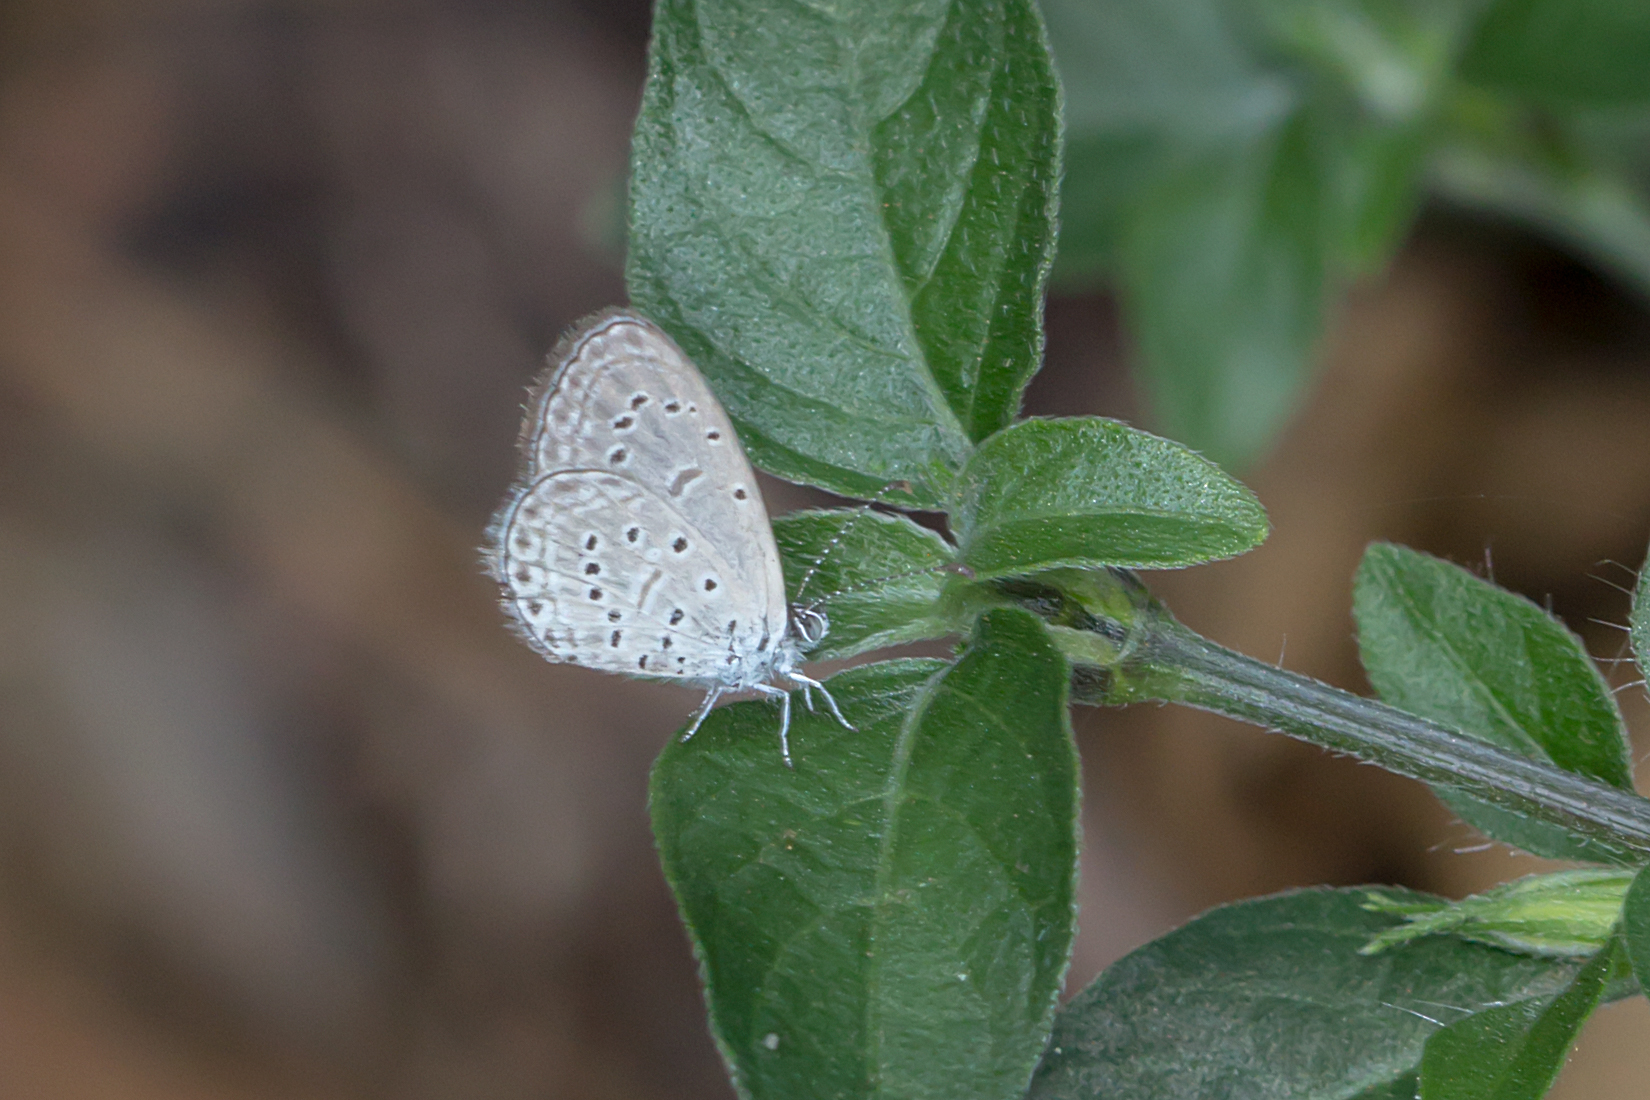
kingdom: Animalia
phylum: Arthropoda
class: Insecta
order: Lepidoptera
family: Lycaenidae
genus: Zizula
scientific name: Zizula hylax
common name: Gaika blue
